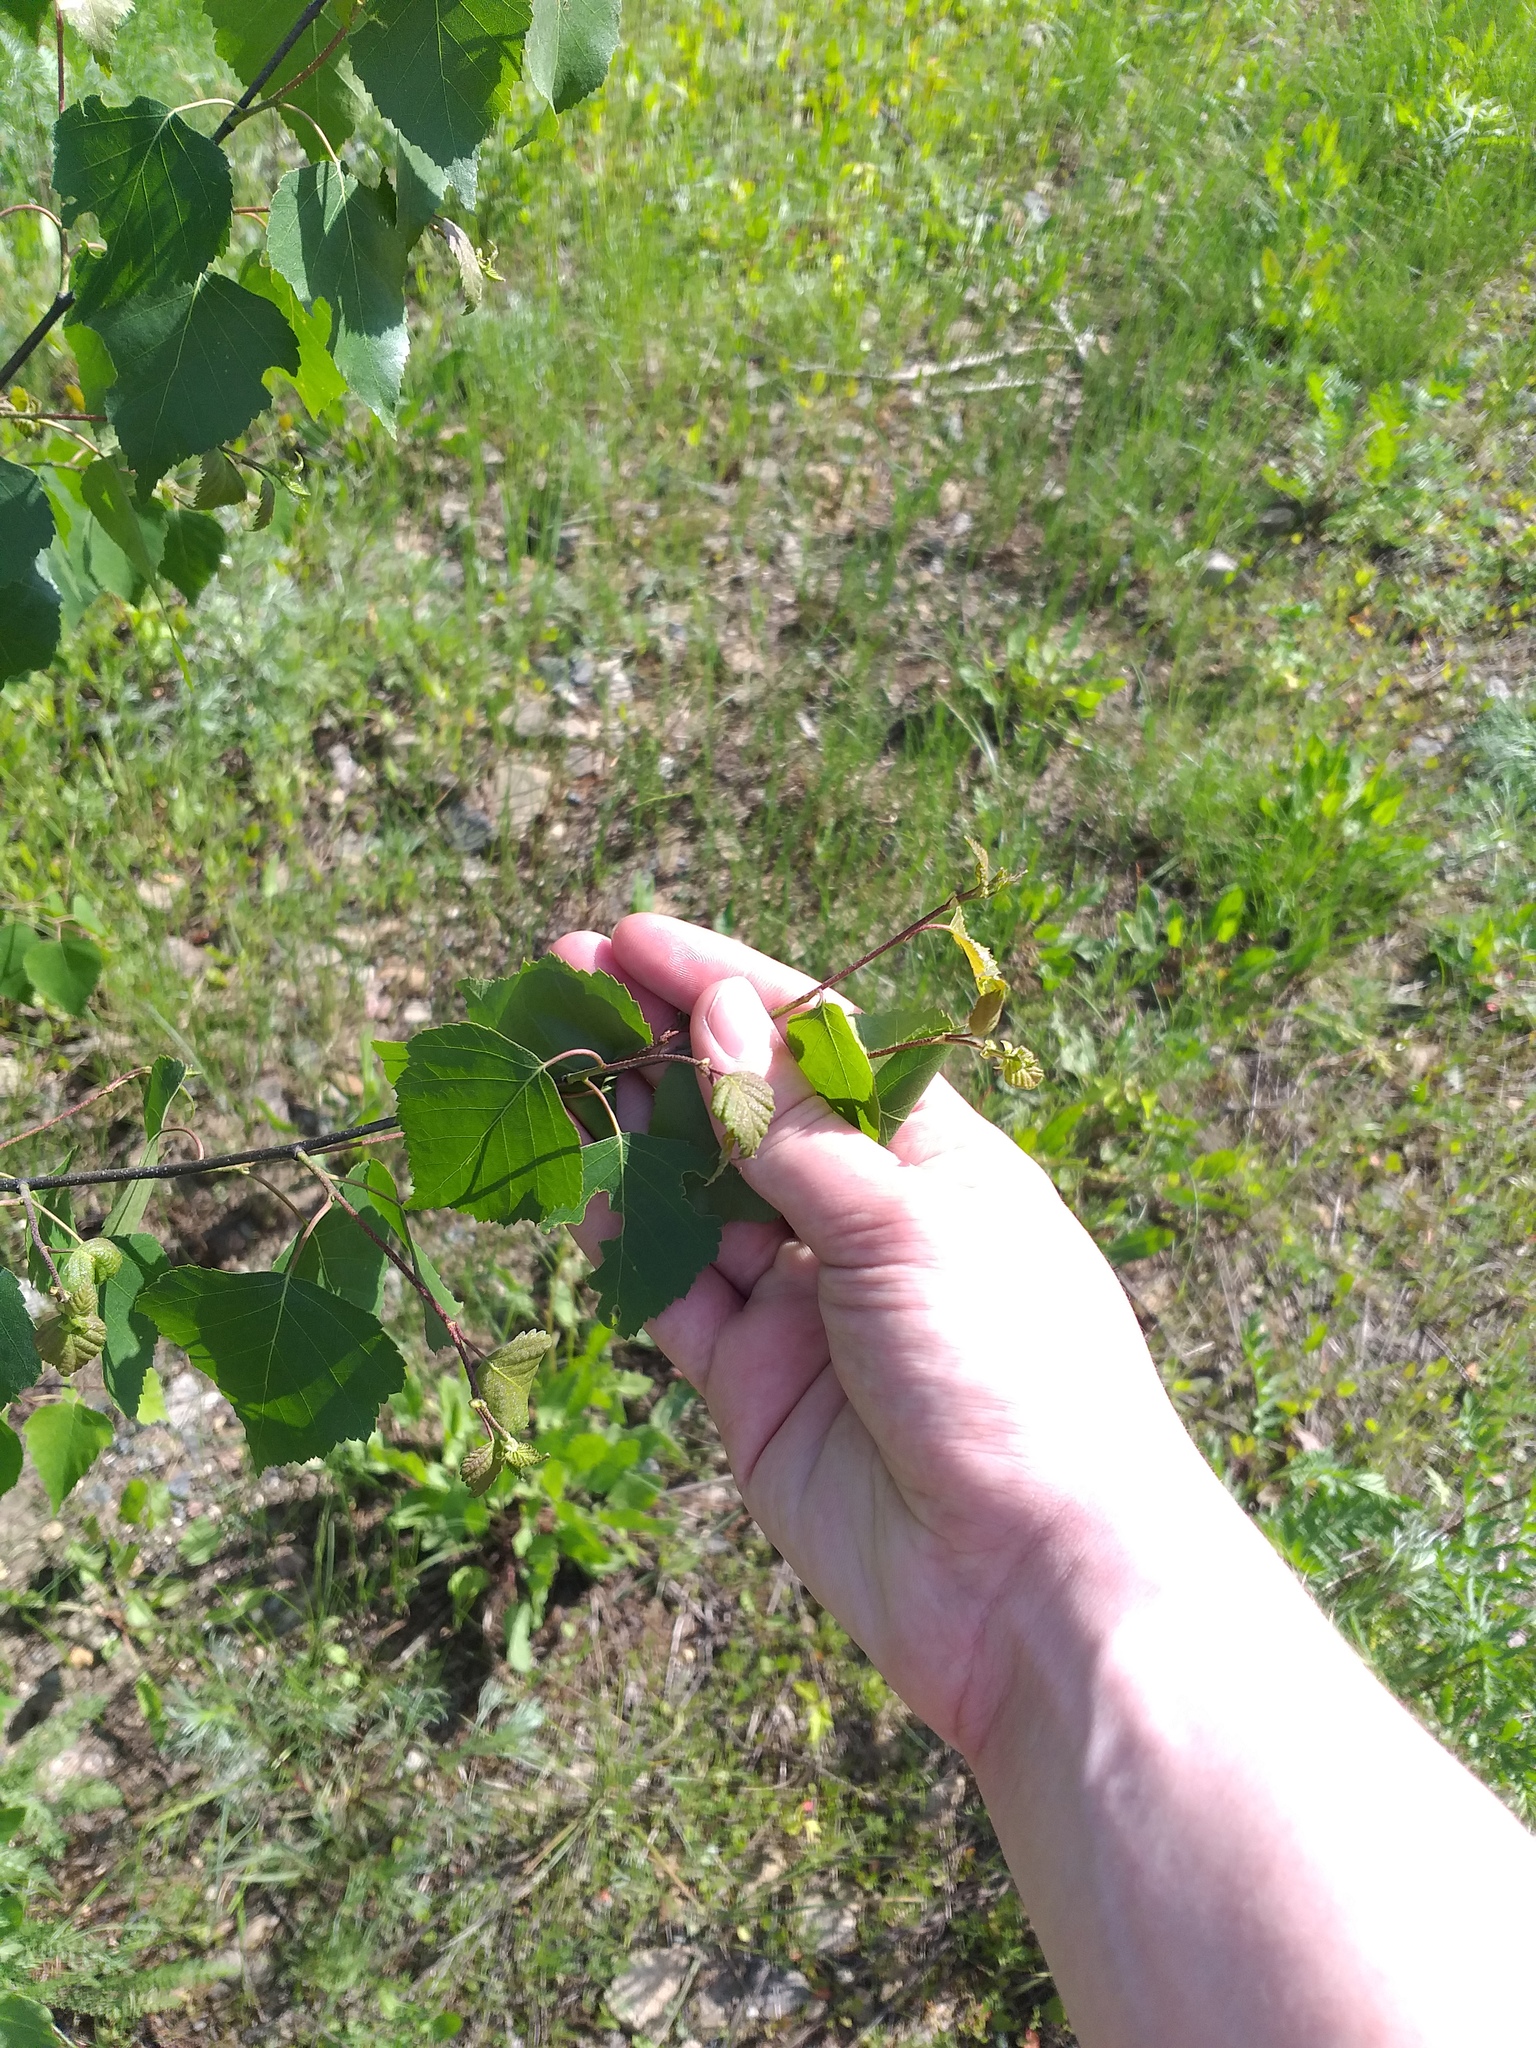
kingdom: Plantae
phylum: Tracheophyta
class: Magnoliopsida
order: Fagales
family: Betulaceae
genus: Betula
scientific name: Betula pendula
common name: Silver birch
